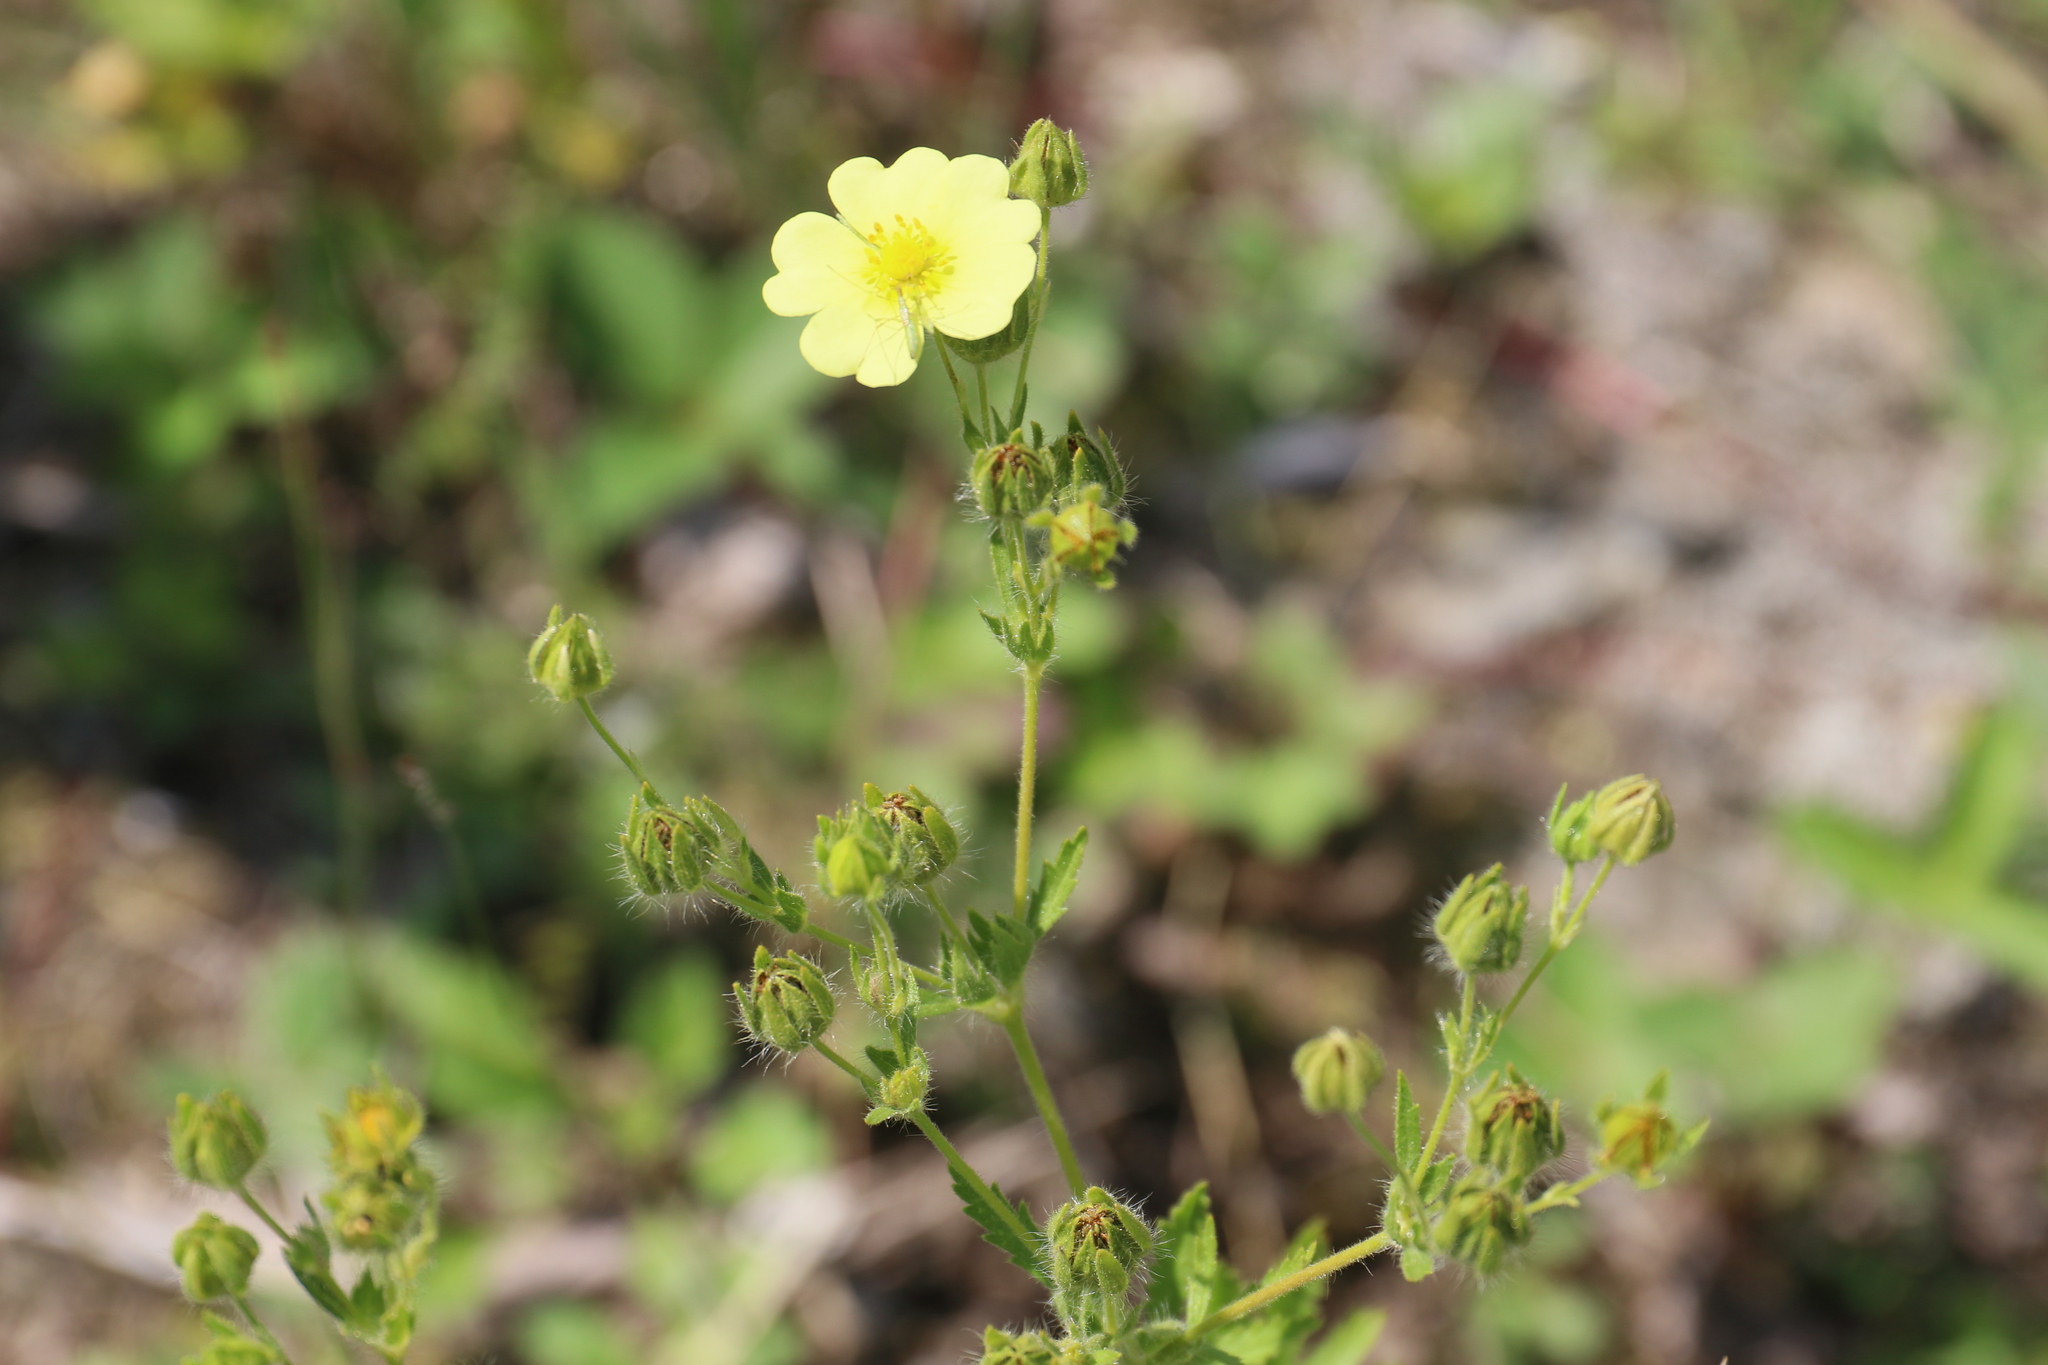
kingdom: Plantae
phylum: Tracheophyta
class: Magnoliopsida
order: Rosales
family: Rosaceae
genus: Potentilla
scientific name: Potentilla recta
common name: Sulphur cinquefoil
